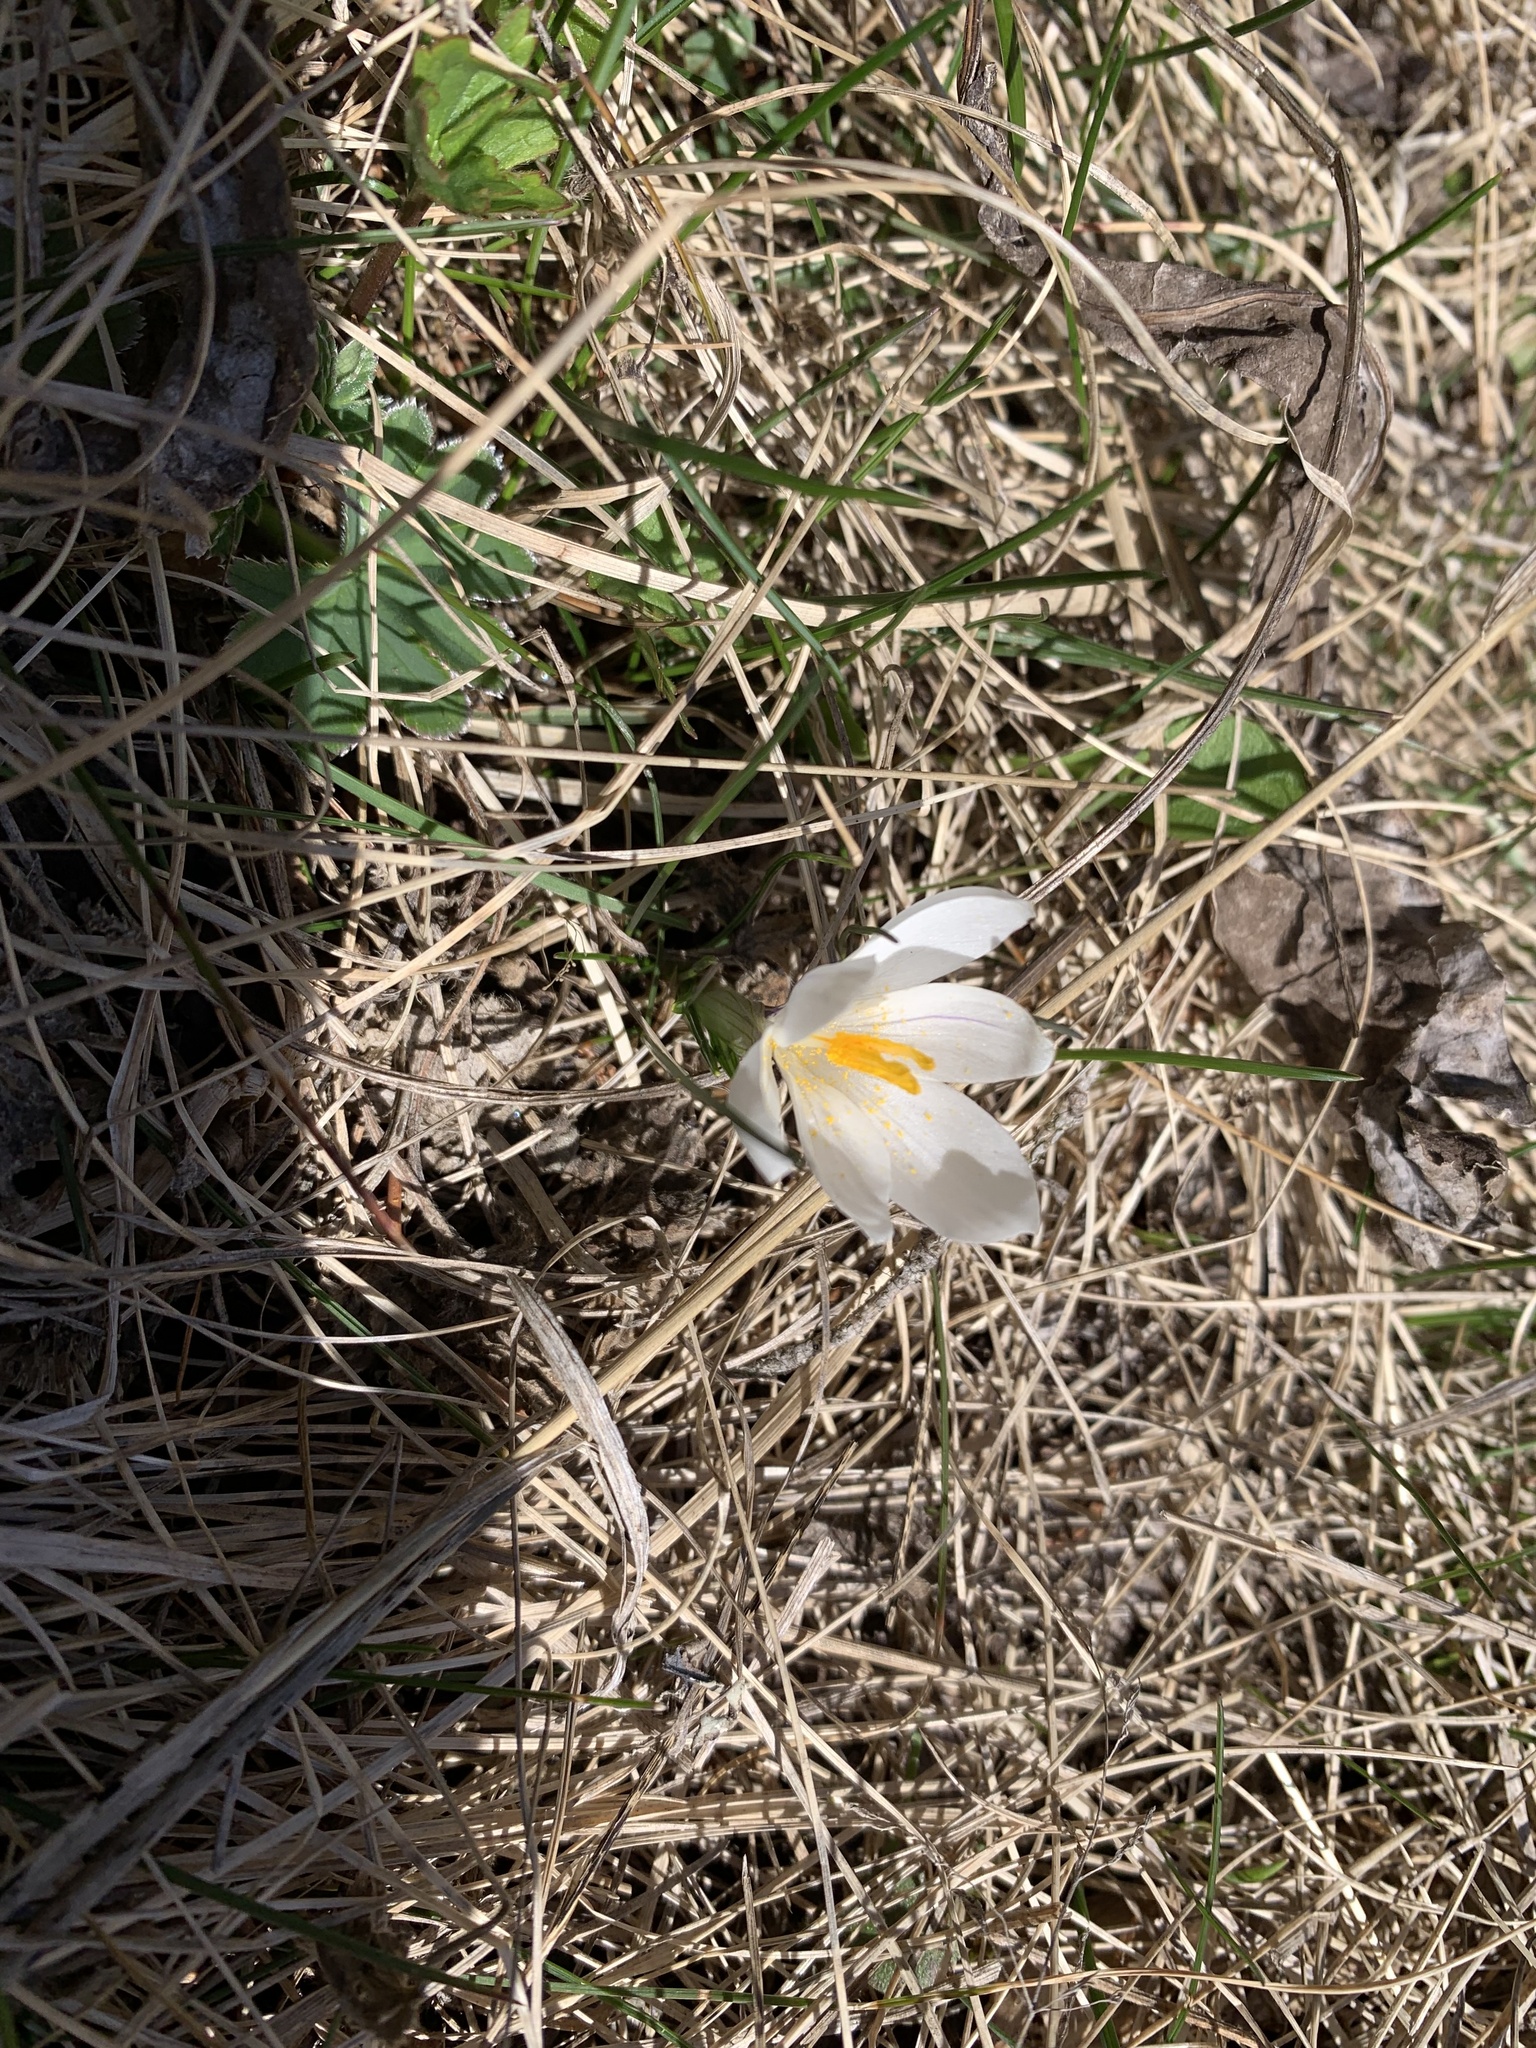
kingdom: Plantae
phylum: Tracheophyta
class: Liliopsida
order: Asparagales
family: Iridaceae
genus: Crocus
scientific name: Crocus vernus
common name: Spring crocus
